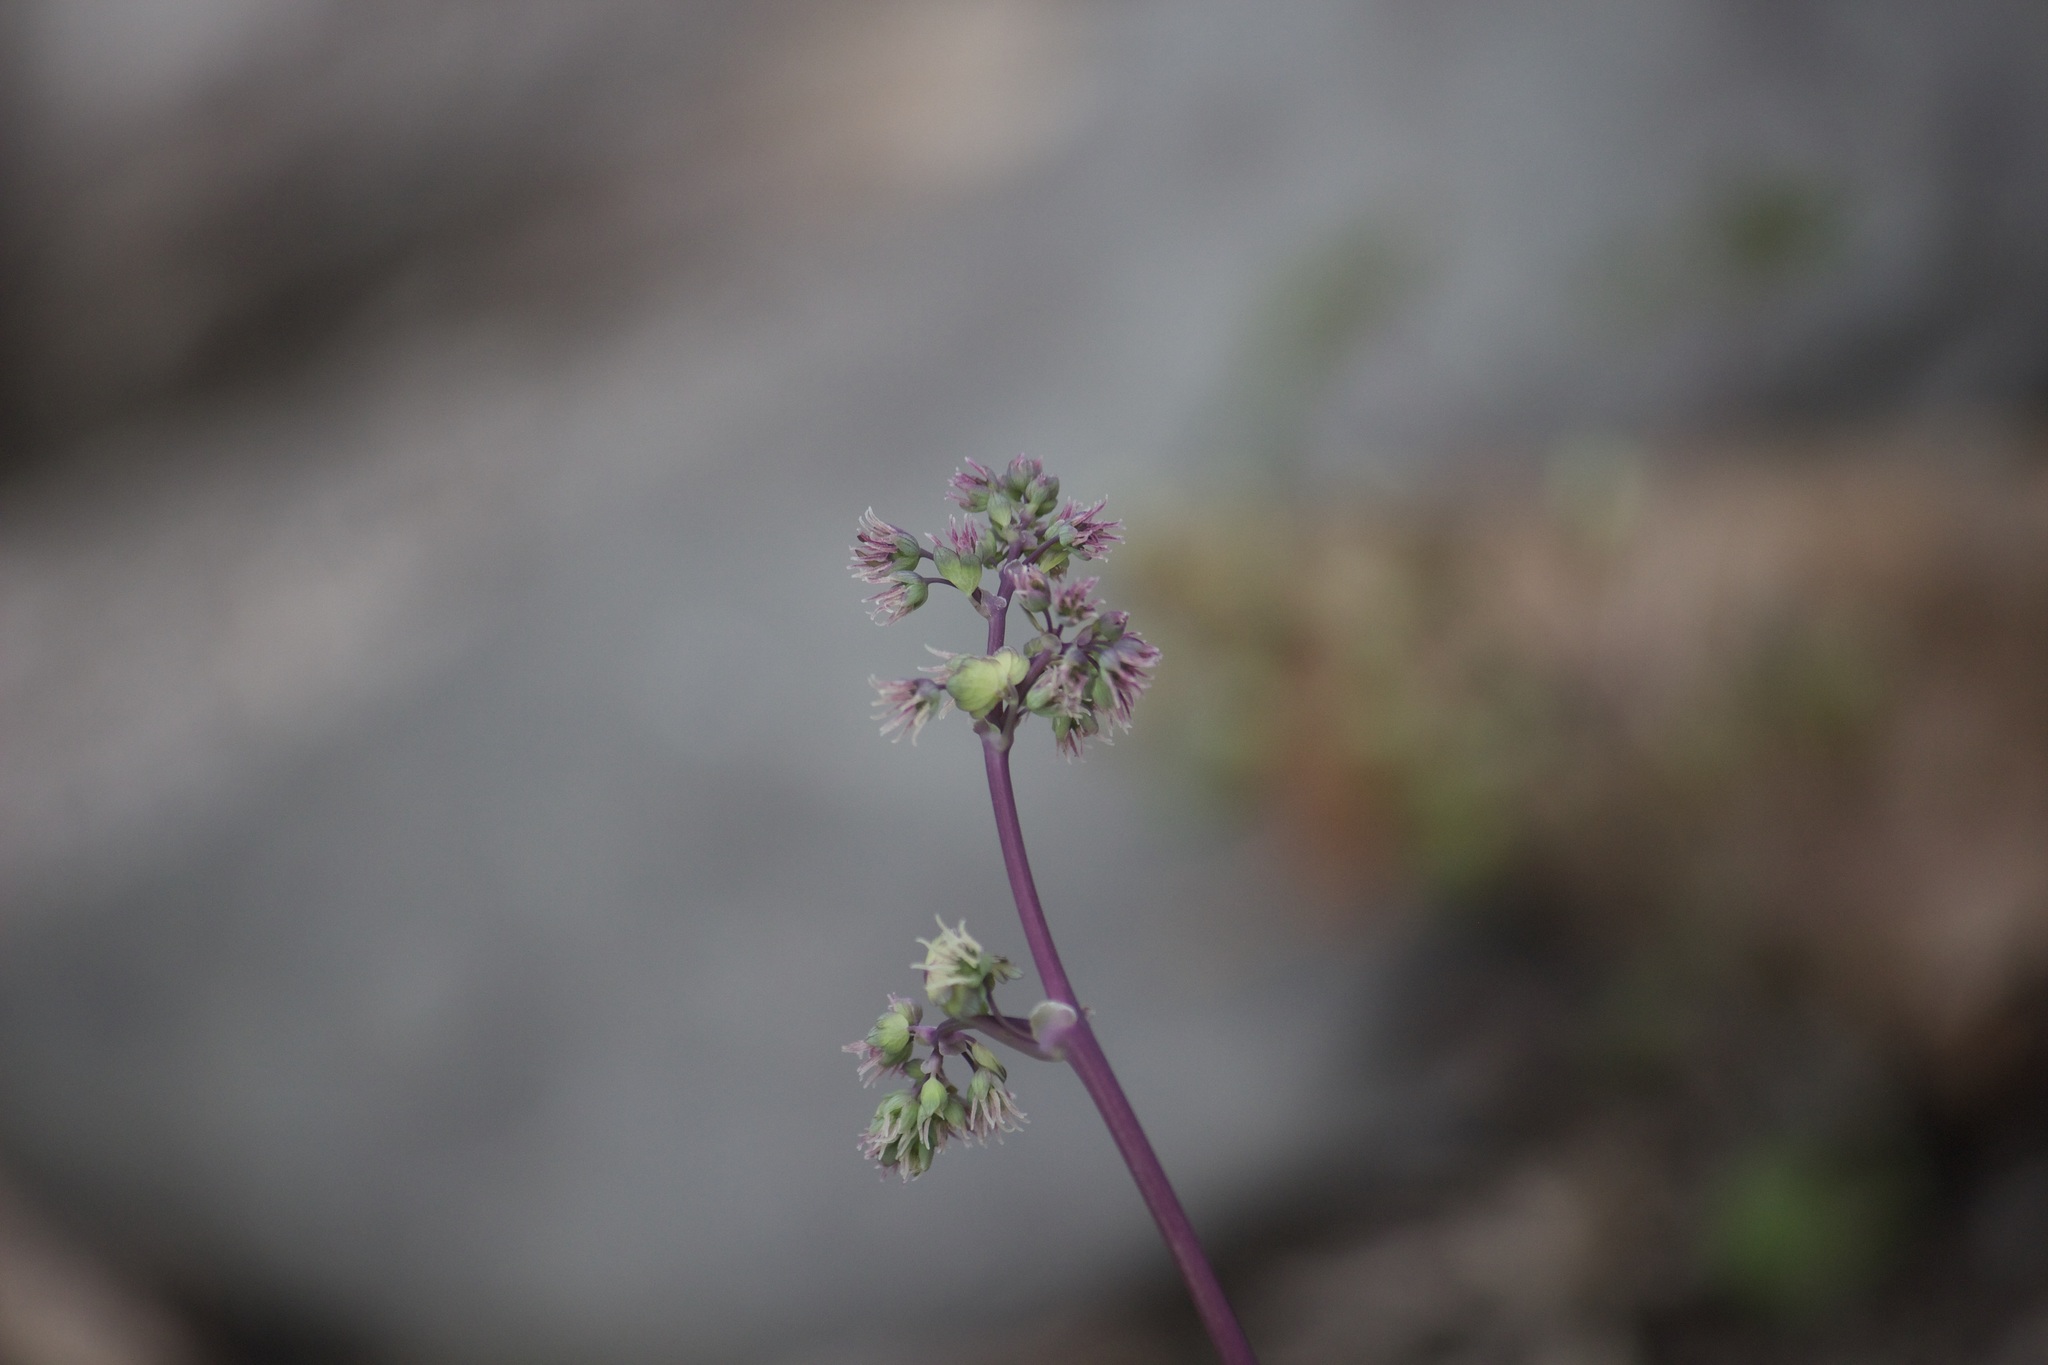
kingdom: Plantae
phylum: Tracheophyta
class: Magnoliopsida
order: Ranunculales
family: Ranunculaceae
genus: Thalictrum
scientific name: Thalictrum dioicum
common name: Early meadow-rue
